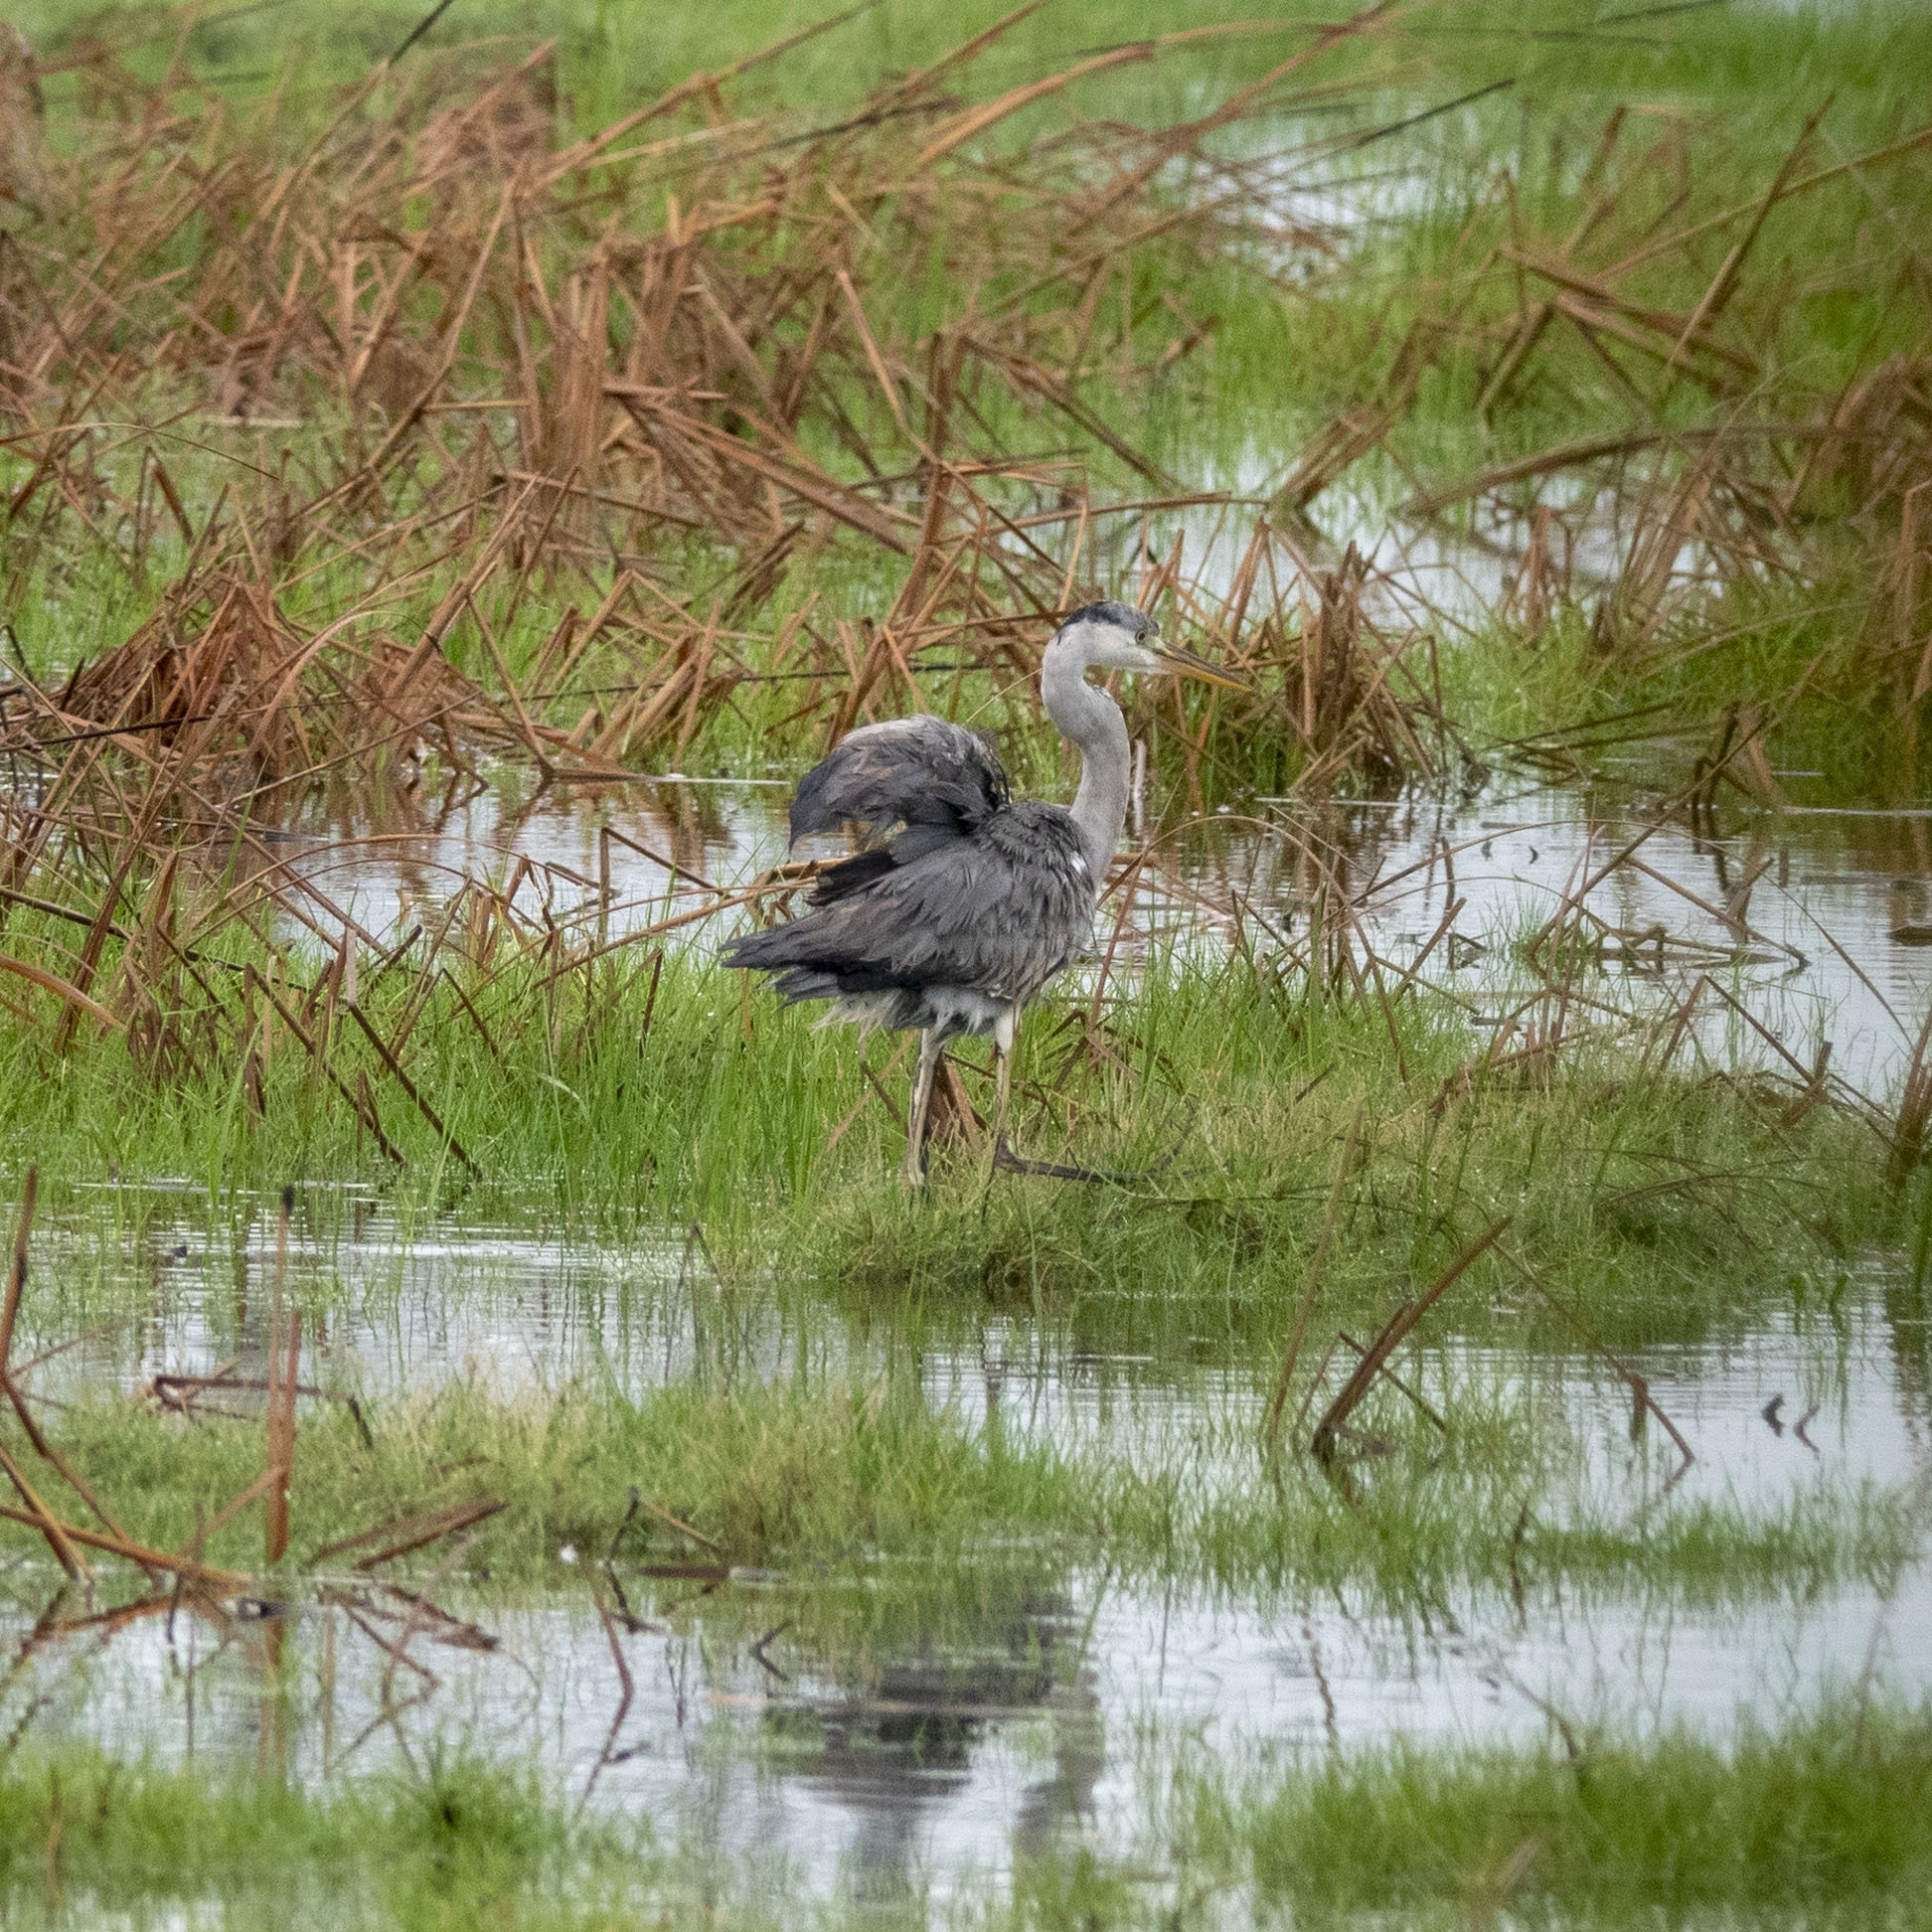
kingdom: Animalia
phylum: Chordata
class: Aves
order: Pelecaniformes
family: Ardeidae
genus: Ardea
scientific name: Ardea cinerea
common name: Grey heron
